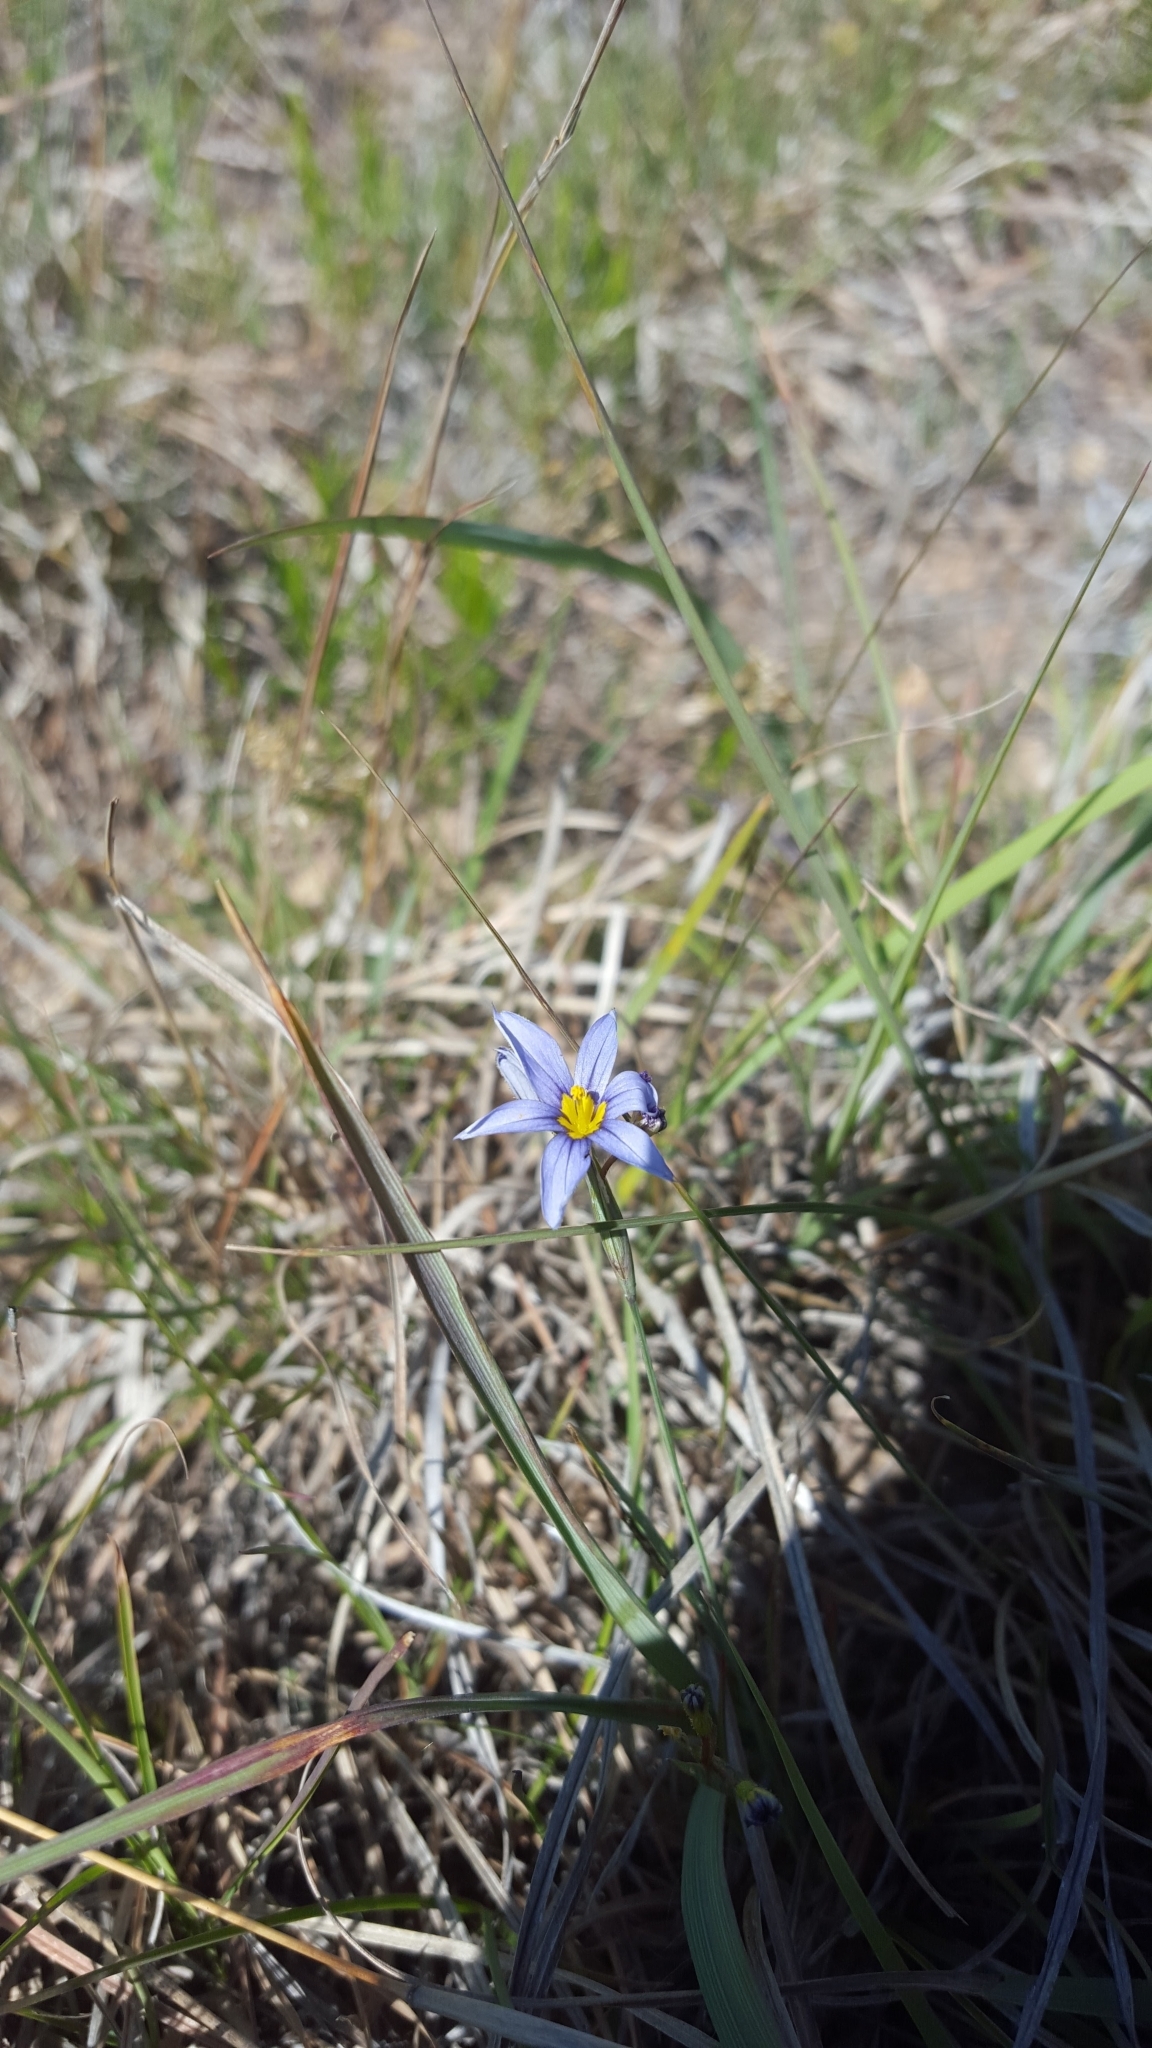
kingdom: Plantae
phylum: Tracheophyta
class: Liliopsida
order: Asparagales
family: Iridaceae
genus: Sisyrinchium
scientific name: Sisyrinchium ensigerum
